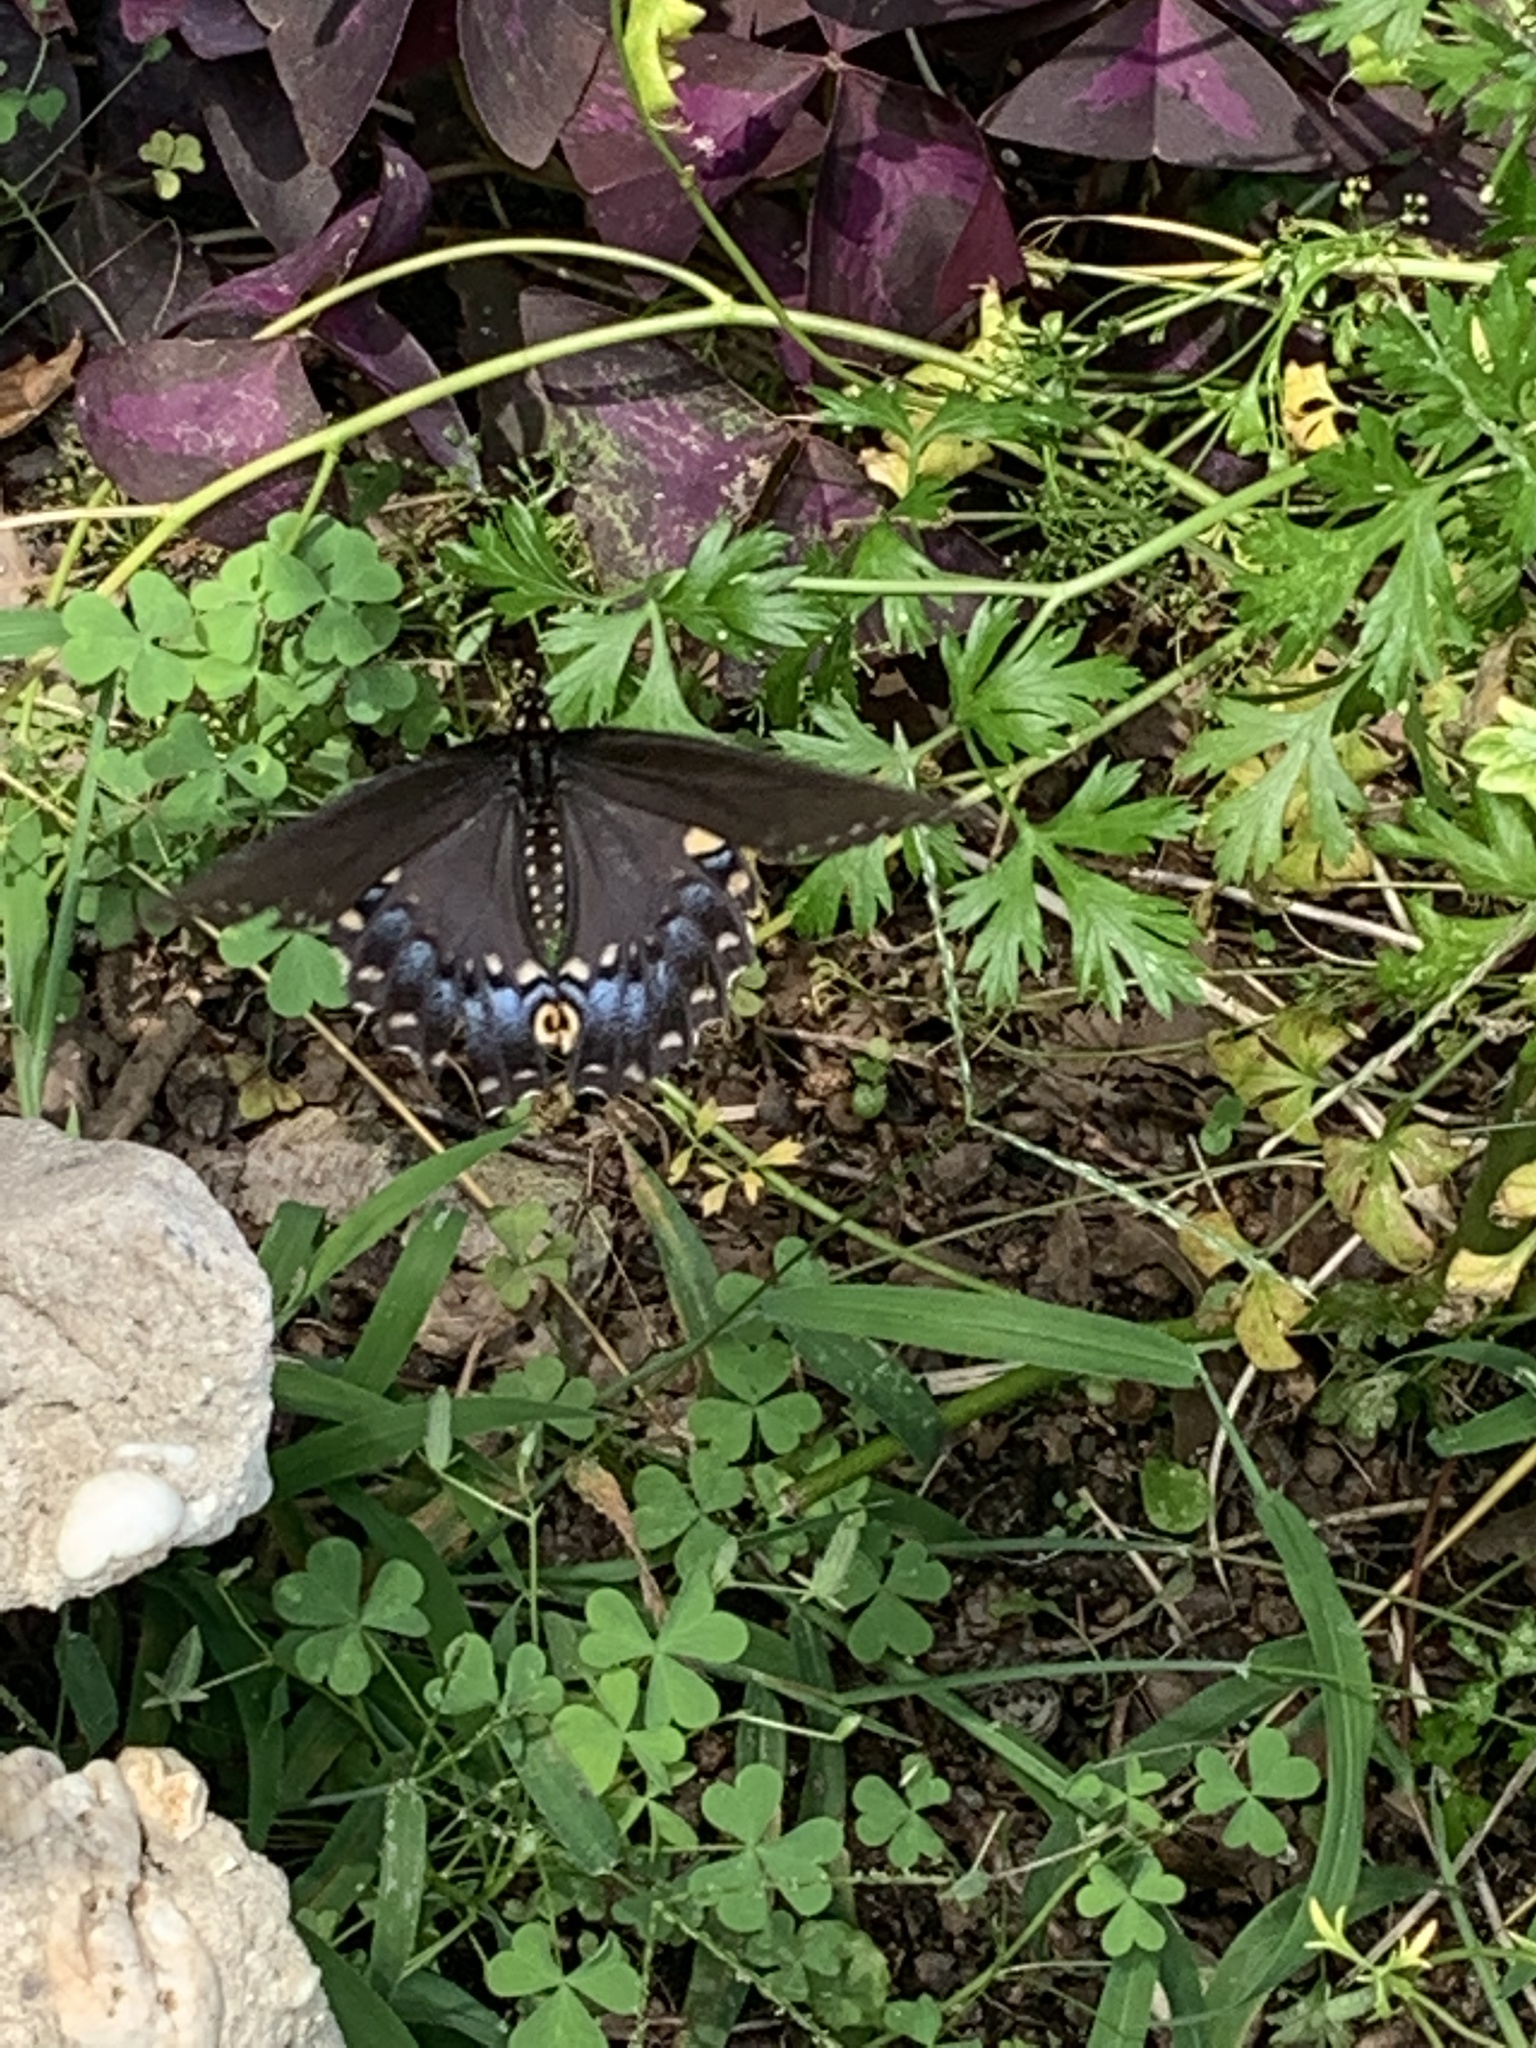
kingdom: Animalia
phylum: Arthropoda
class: Insecta
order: Lepidoptera
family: Papilionidae
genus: Papilio
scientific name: Papilio polyxenes
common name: Black swallowtail
